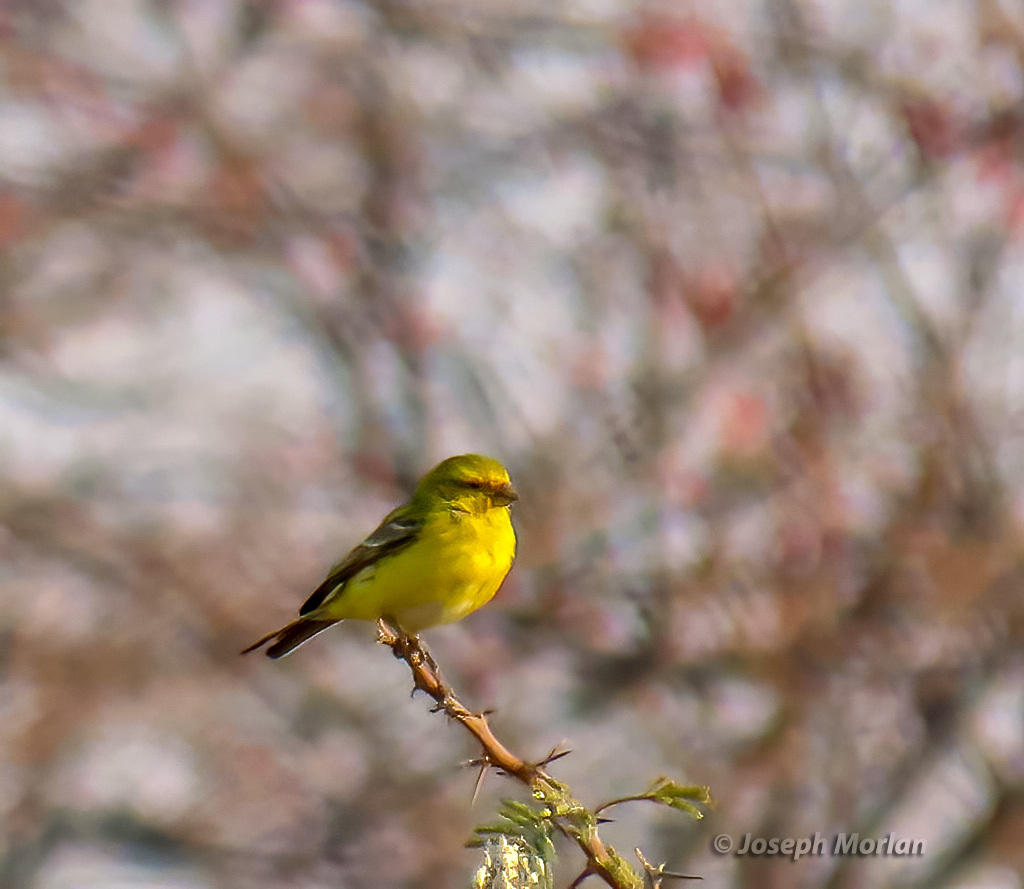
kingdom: Animalia
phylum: Chordata
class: Aves
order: Passeriformes
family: Fringillidae
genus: Crithagra
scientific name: Crithagra flaviventris
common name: Yellow canary
